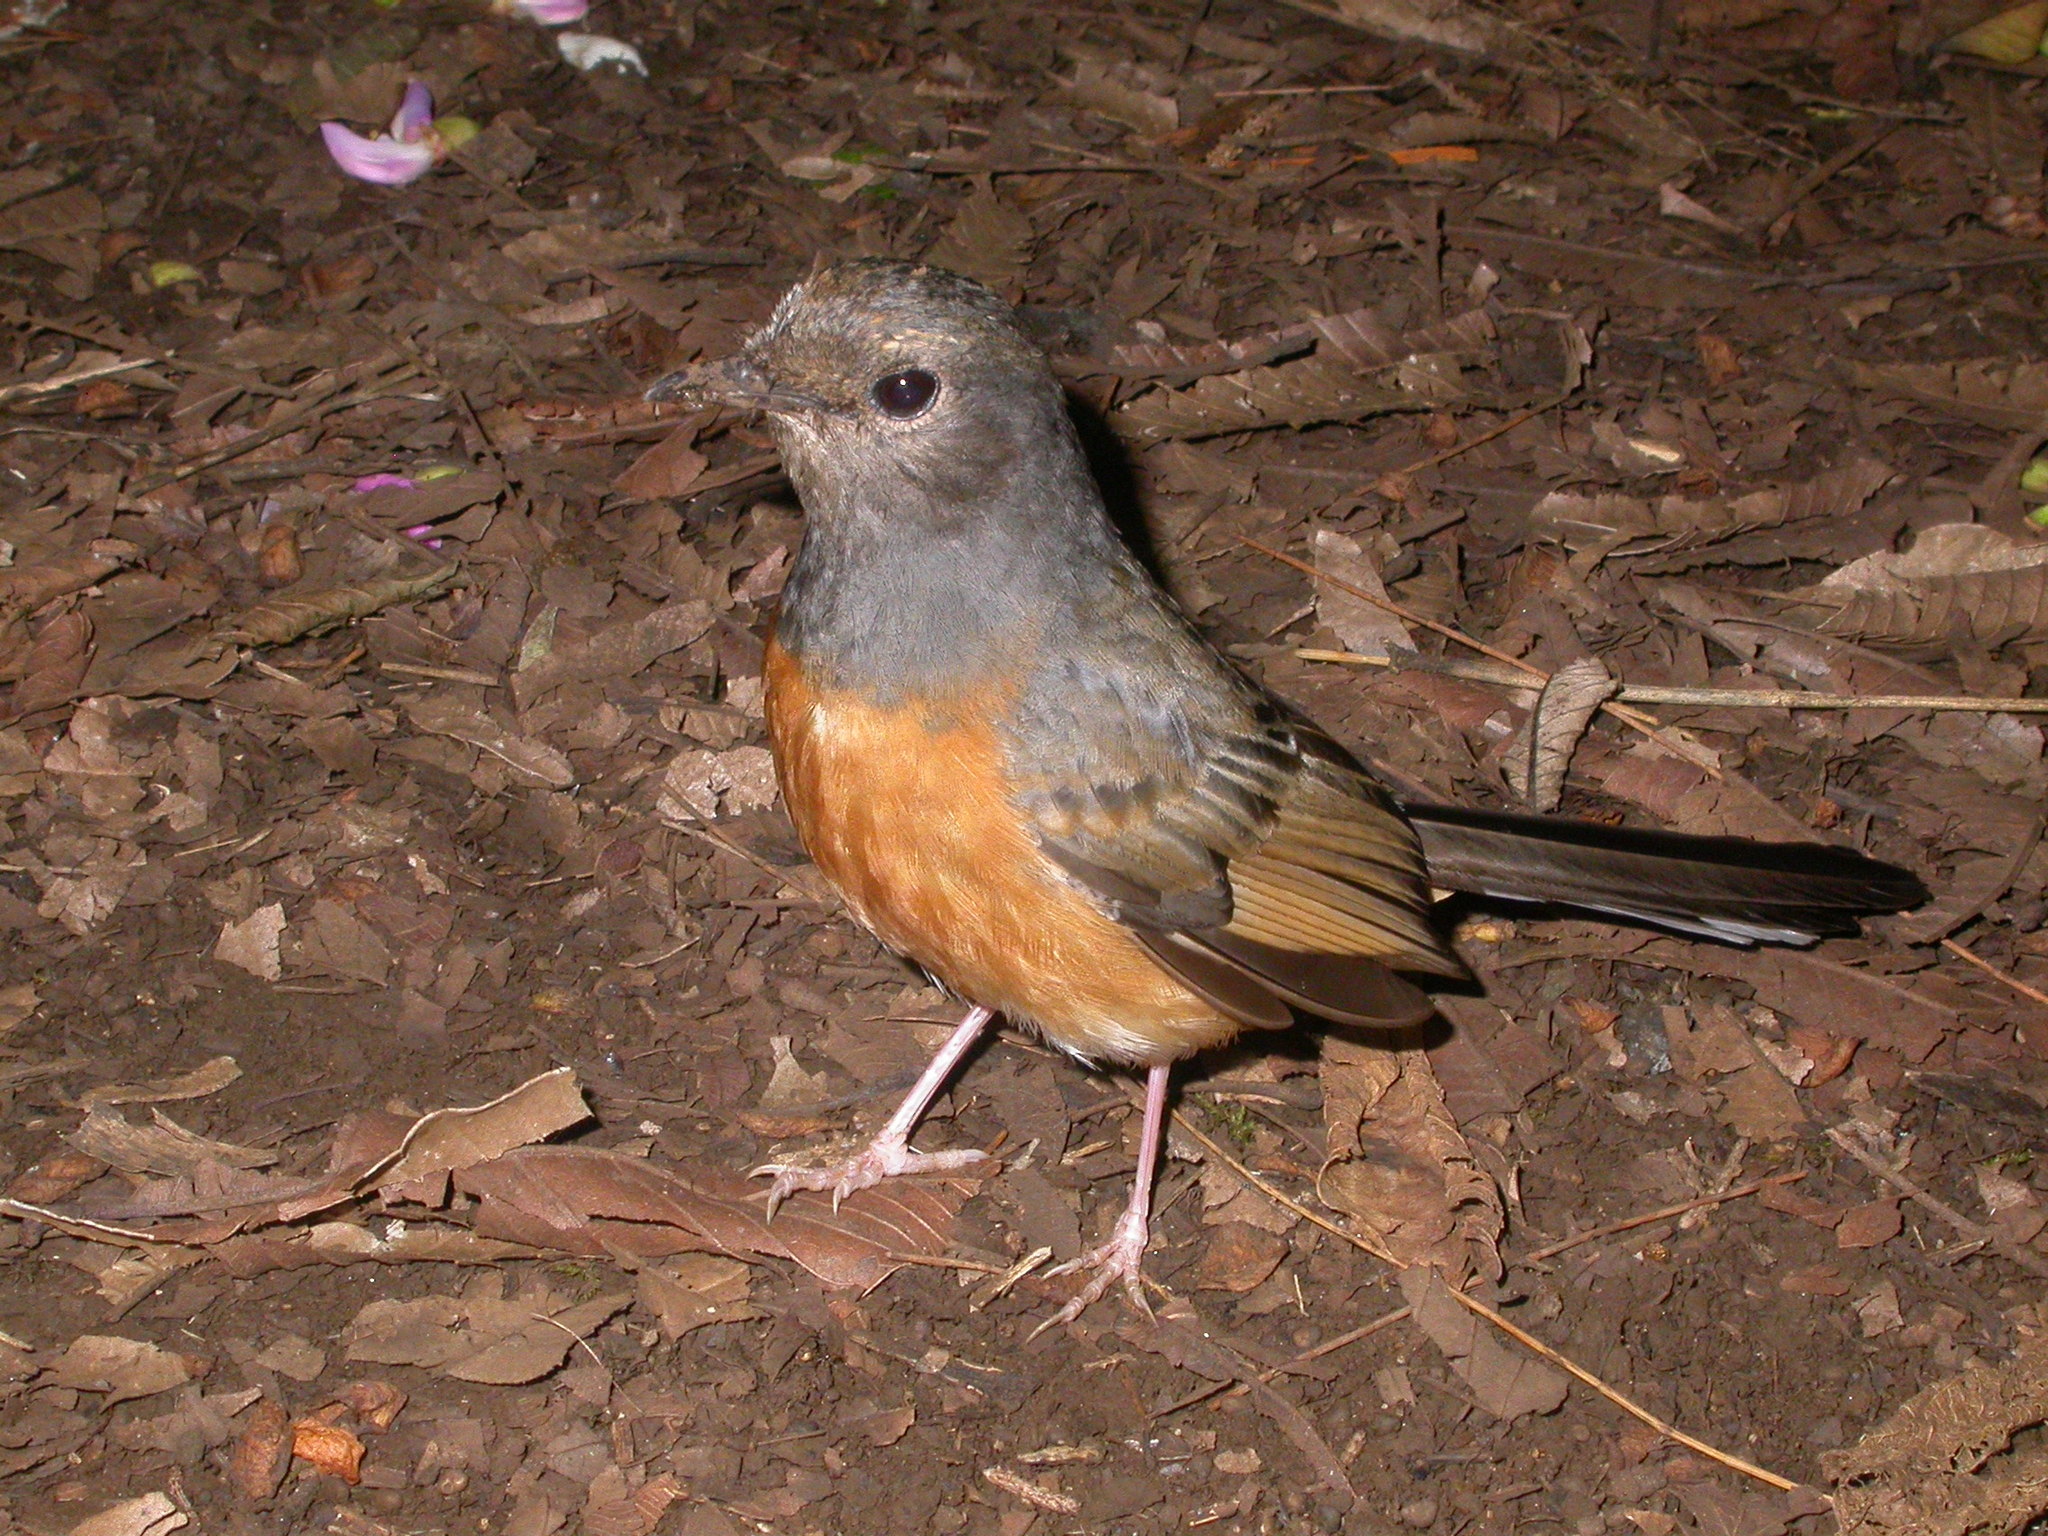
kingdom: Animalia
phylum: Chordata
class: Aves
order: Passeriformes
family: Muscicapidae
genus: Copsychus
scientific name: Copsychus malabaricus
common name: White-rumped shama
